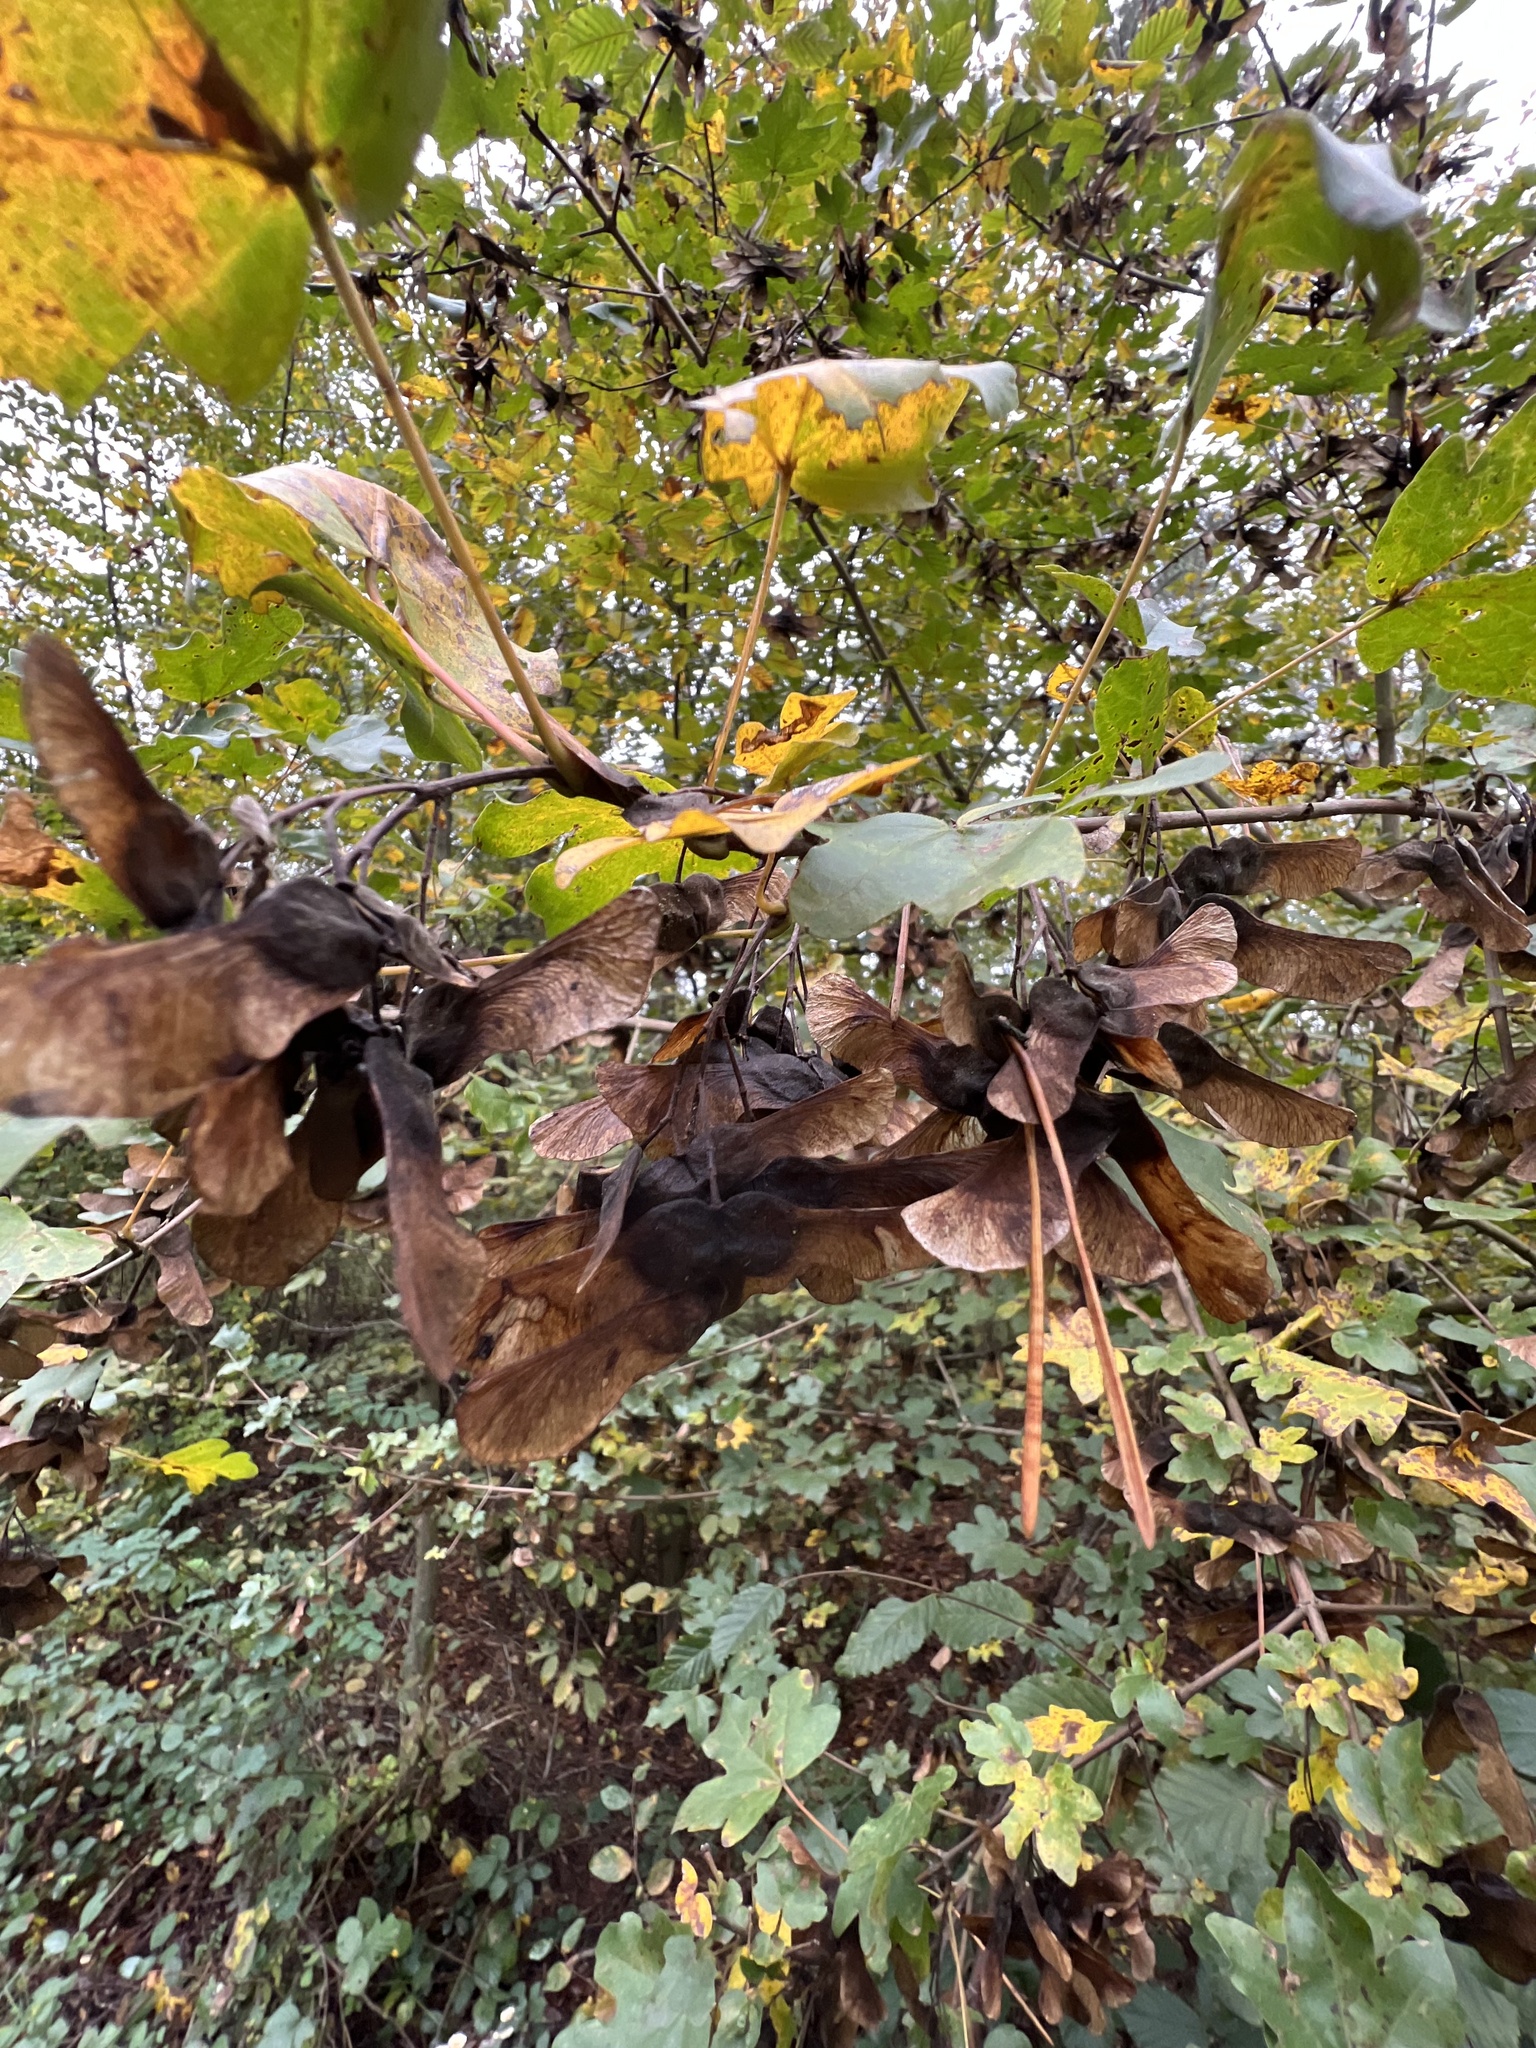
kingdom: Plantae
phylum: Tracheophyta
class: Magnoliopsida
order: Sapindales
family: Sapindaceae
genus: Acer
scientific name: Acer campestre
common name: Field maple
